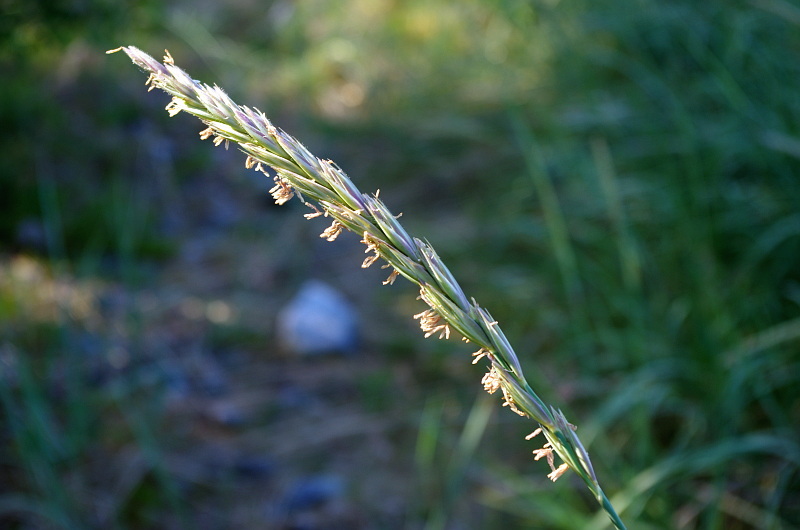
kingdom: Plantae
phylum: Tracheophyta
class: Liliopsida
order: Poales
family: Poaceae
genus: Leymus
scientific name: Leymus arenarius
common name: Lyme-grass
